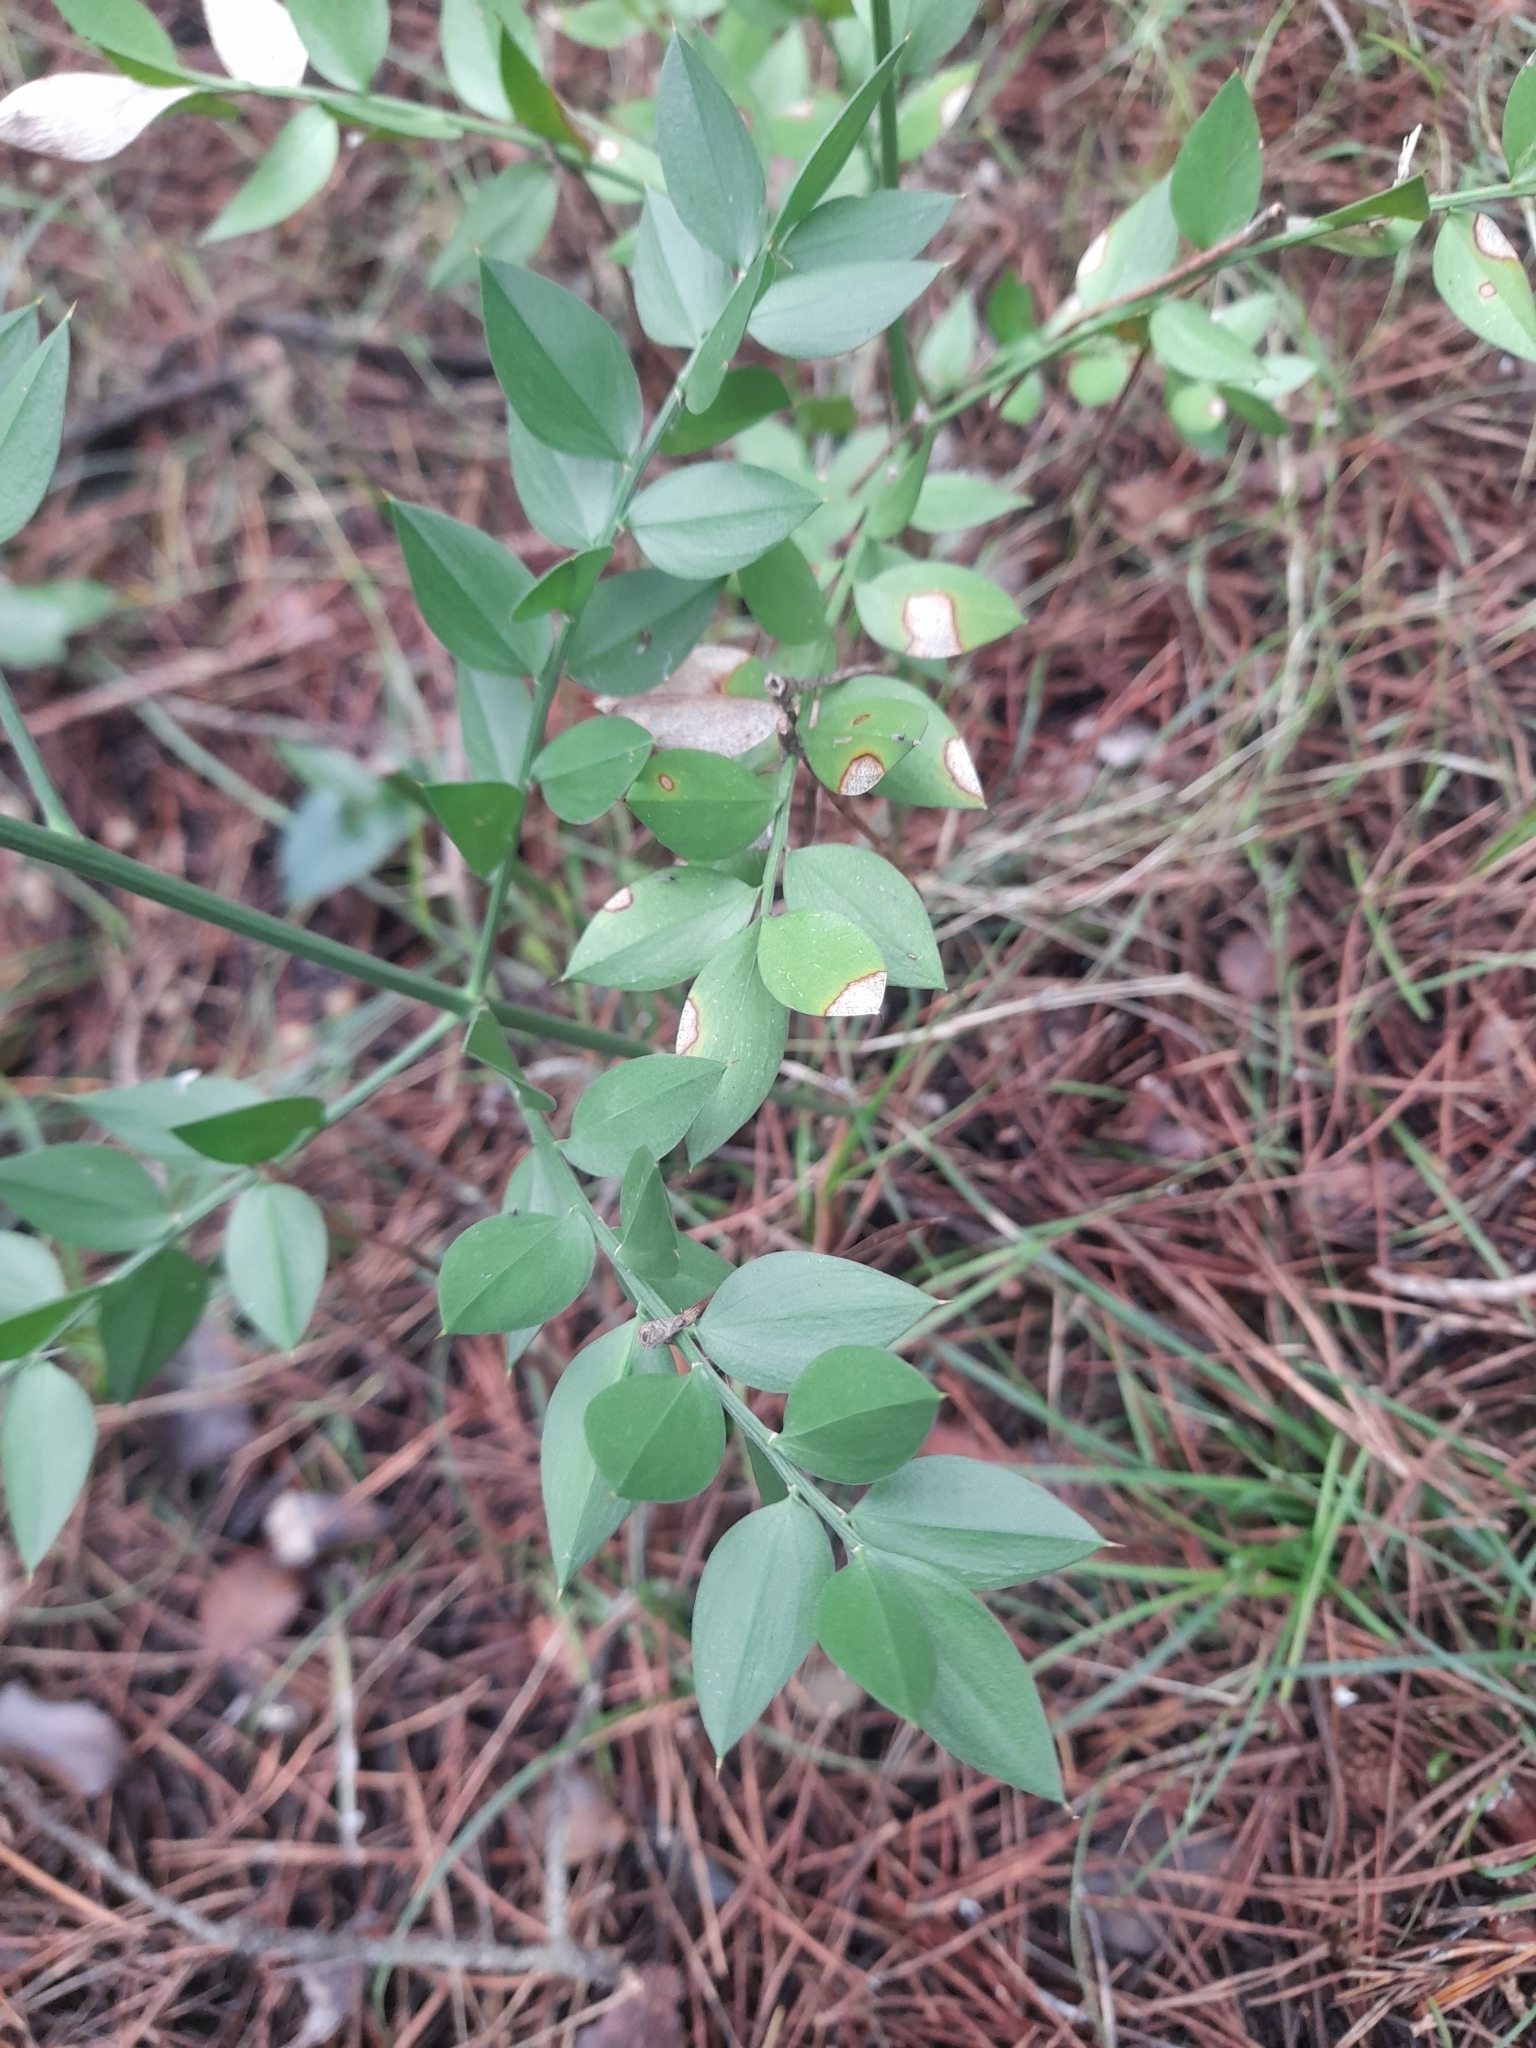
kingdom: Plantae
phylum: Tracheophyta
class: Liliopsida
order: Asparagales
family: Asparagaceae
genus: Ruscus
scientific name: Ruscus aculeatus
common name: Butcher's-broom
